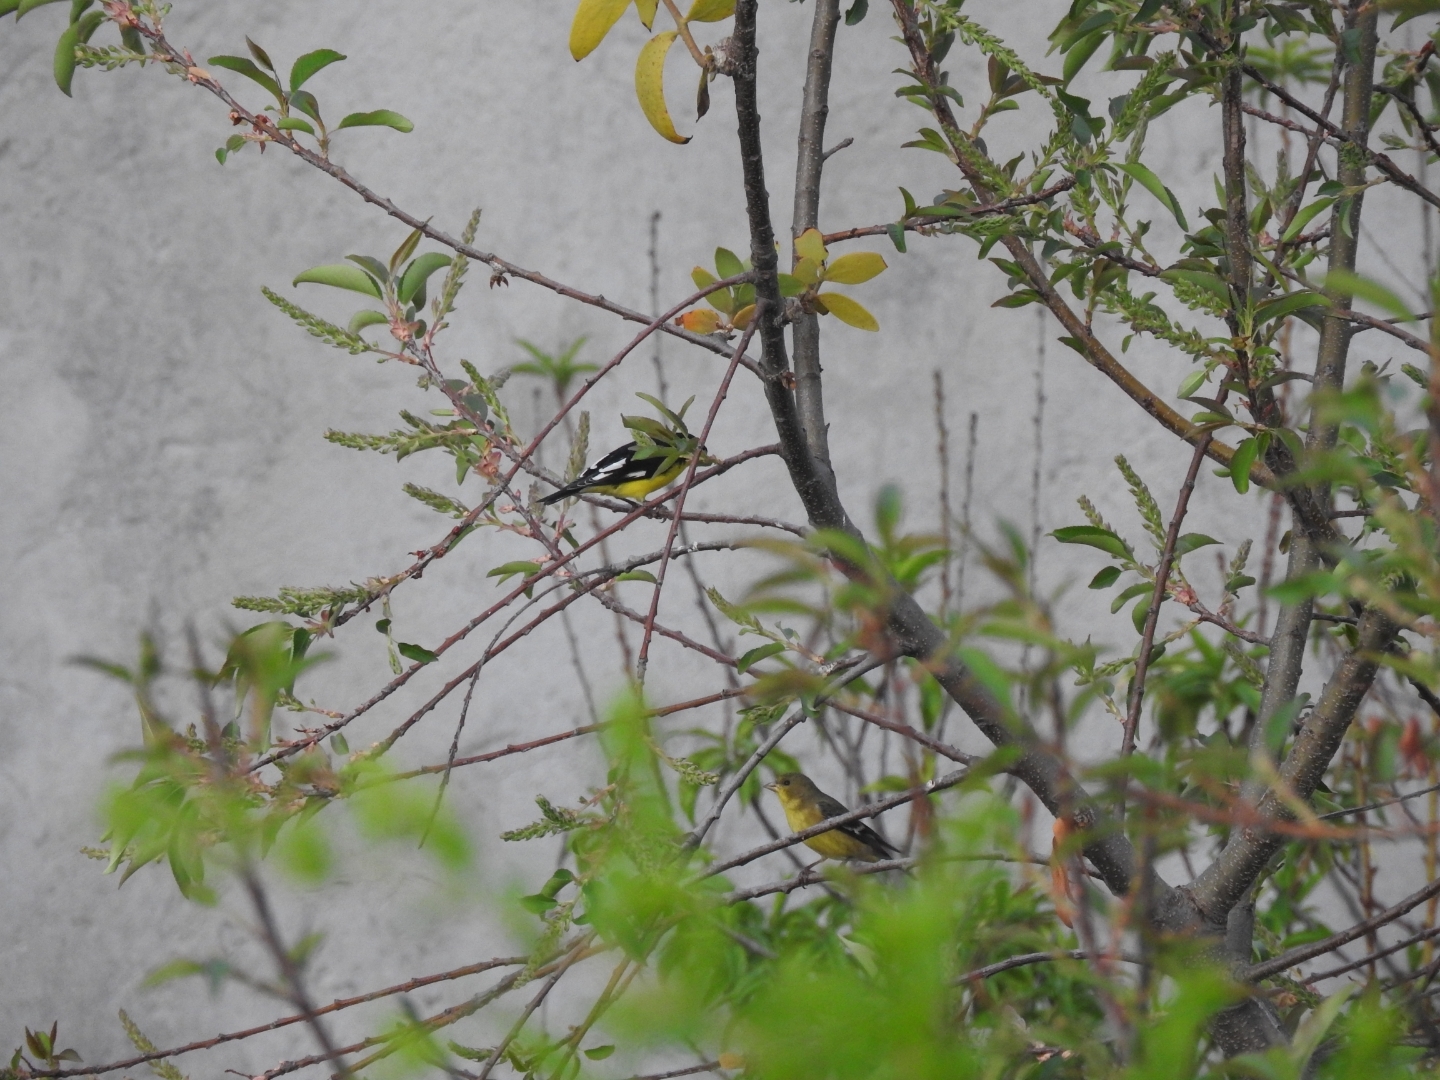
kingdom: Animalia
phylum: Chordata
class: Aves
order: Passeriformes
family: Fringillidae
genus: Spinus
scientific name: Spinus psaltria
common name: Lesser goldfinch
